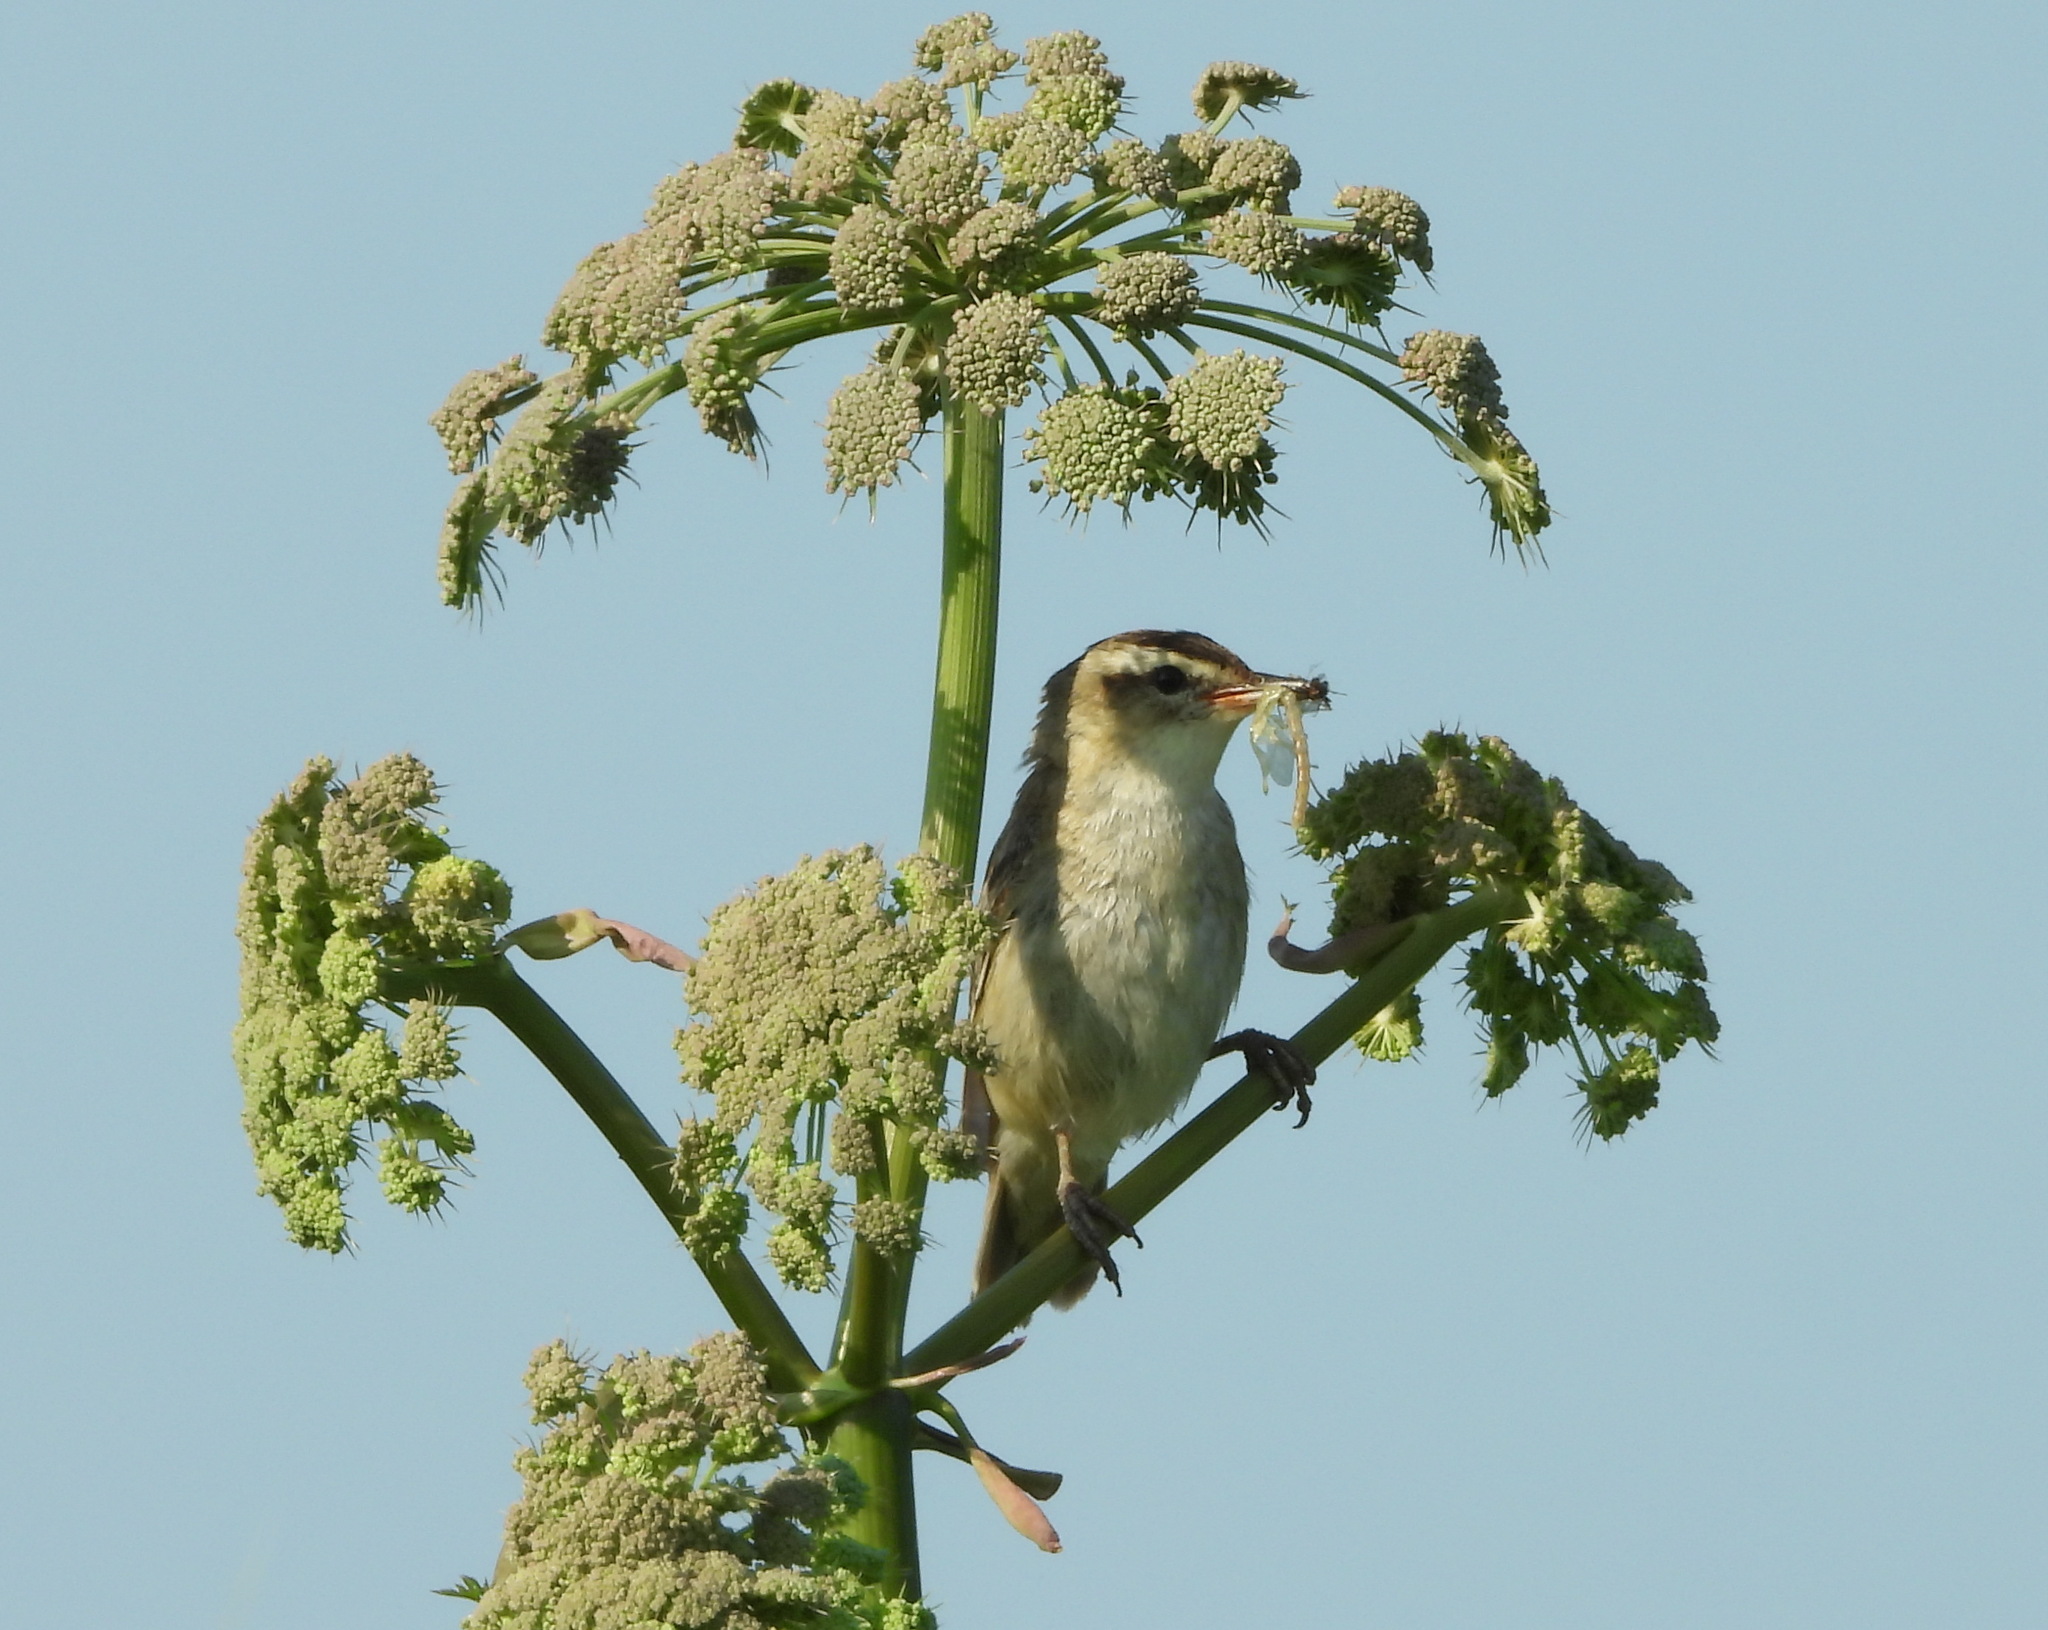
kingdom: Animalia
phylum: Chordata
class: Aves
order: Passeriformes
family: Acrocephalidae
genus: Acrocephalus
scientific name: Acrocephalus schoenobaenus
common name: Sedge warbler
